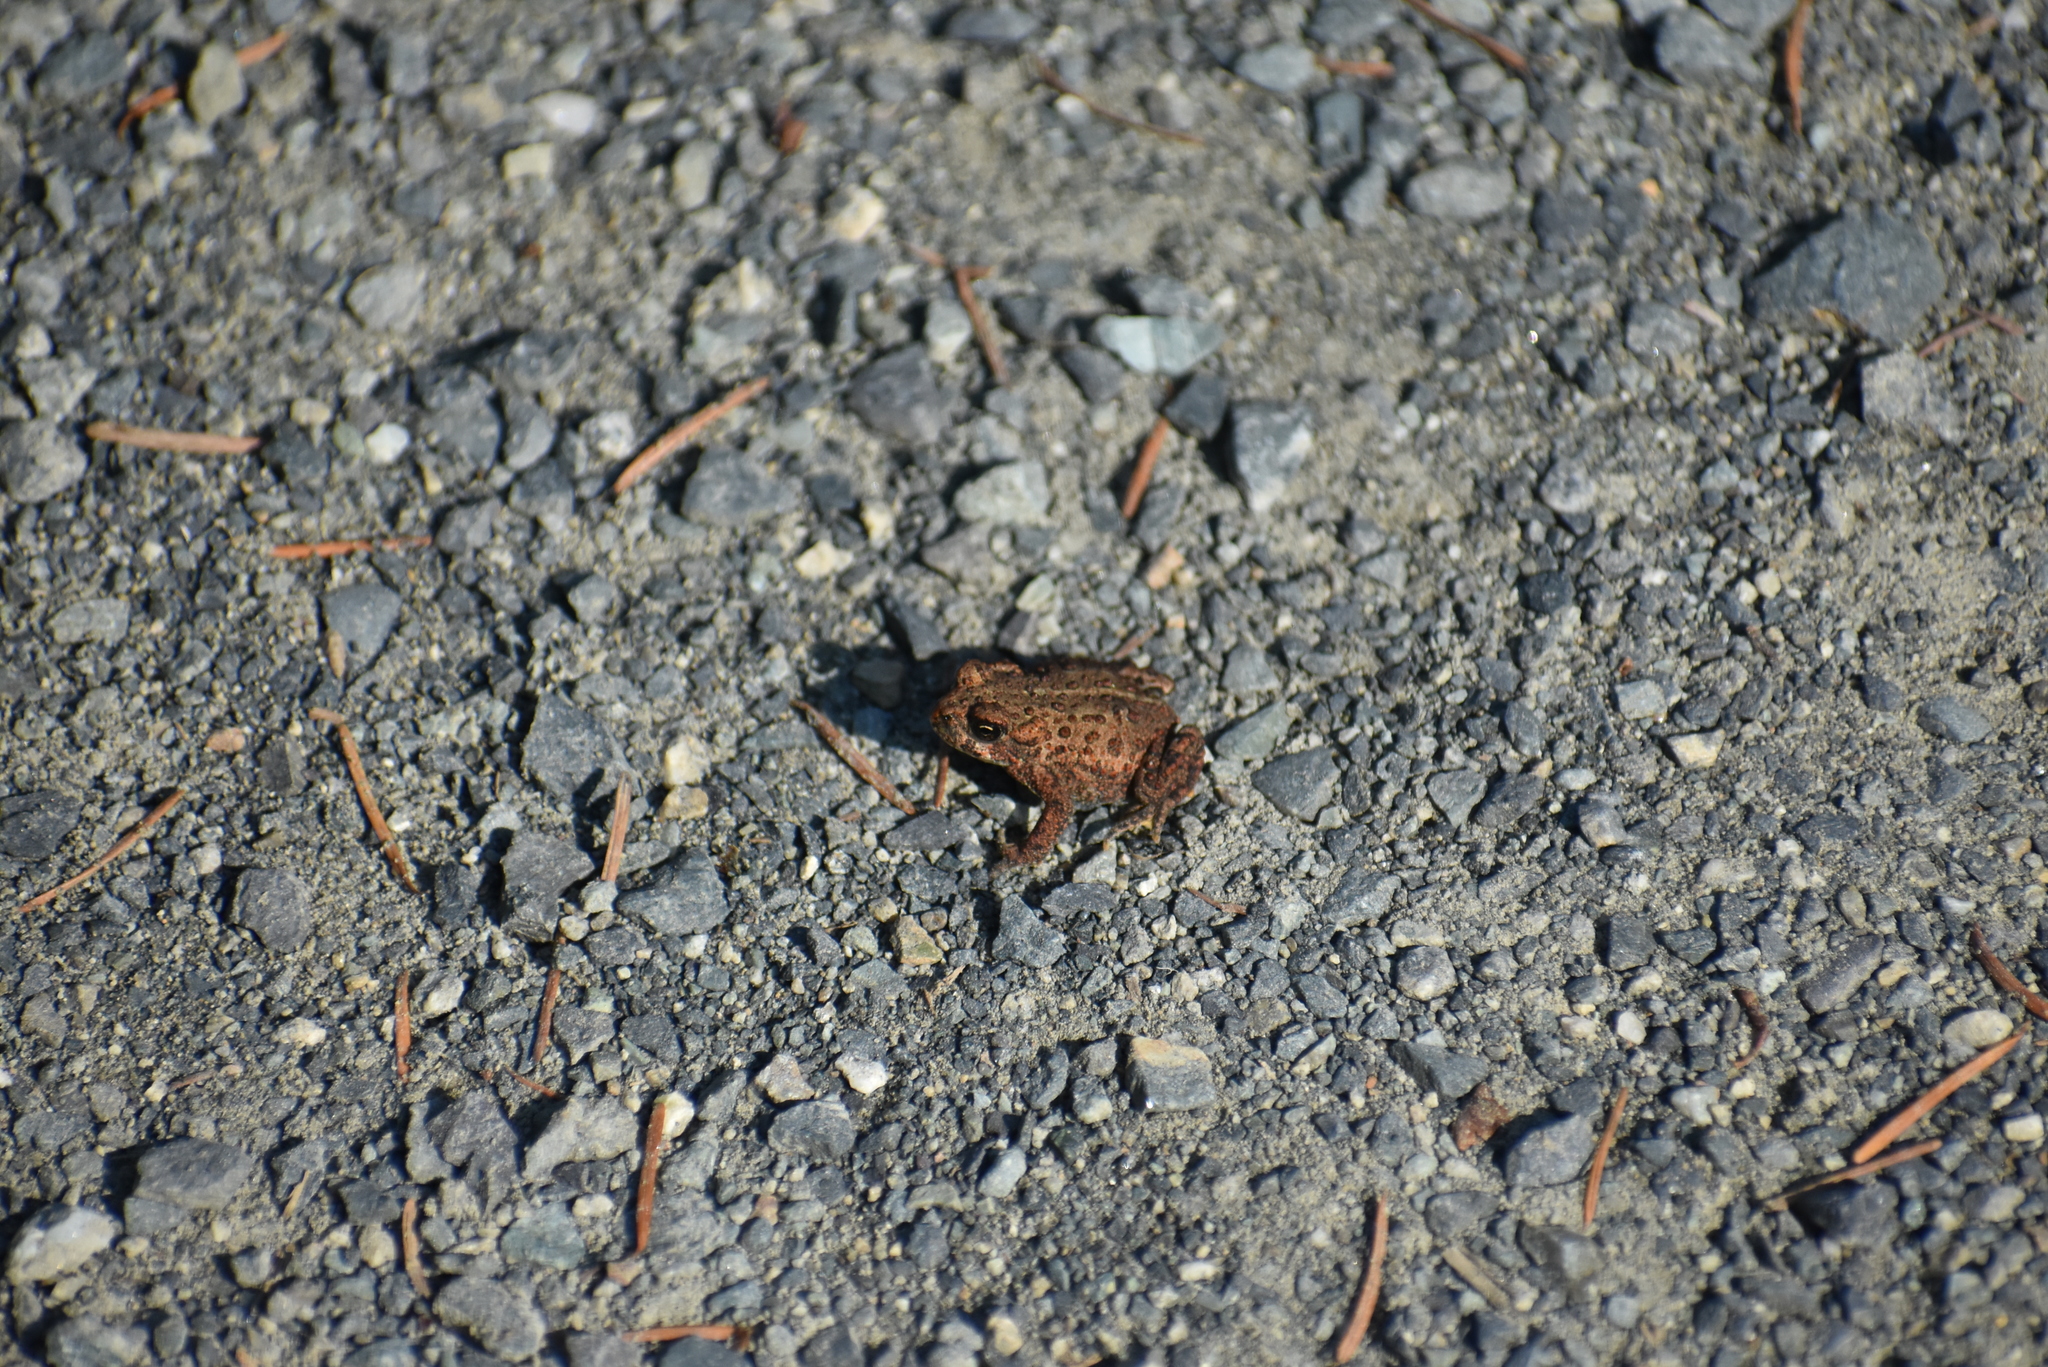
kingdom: Animalia
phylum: Chordata
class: Amphibia
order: Anura
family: Bufonidae
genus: Anaxyrus
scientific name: Anaxyrus boreas
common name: Western toad
